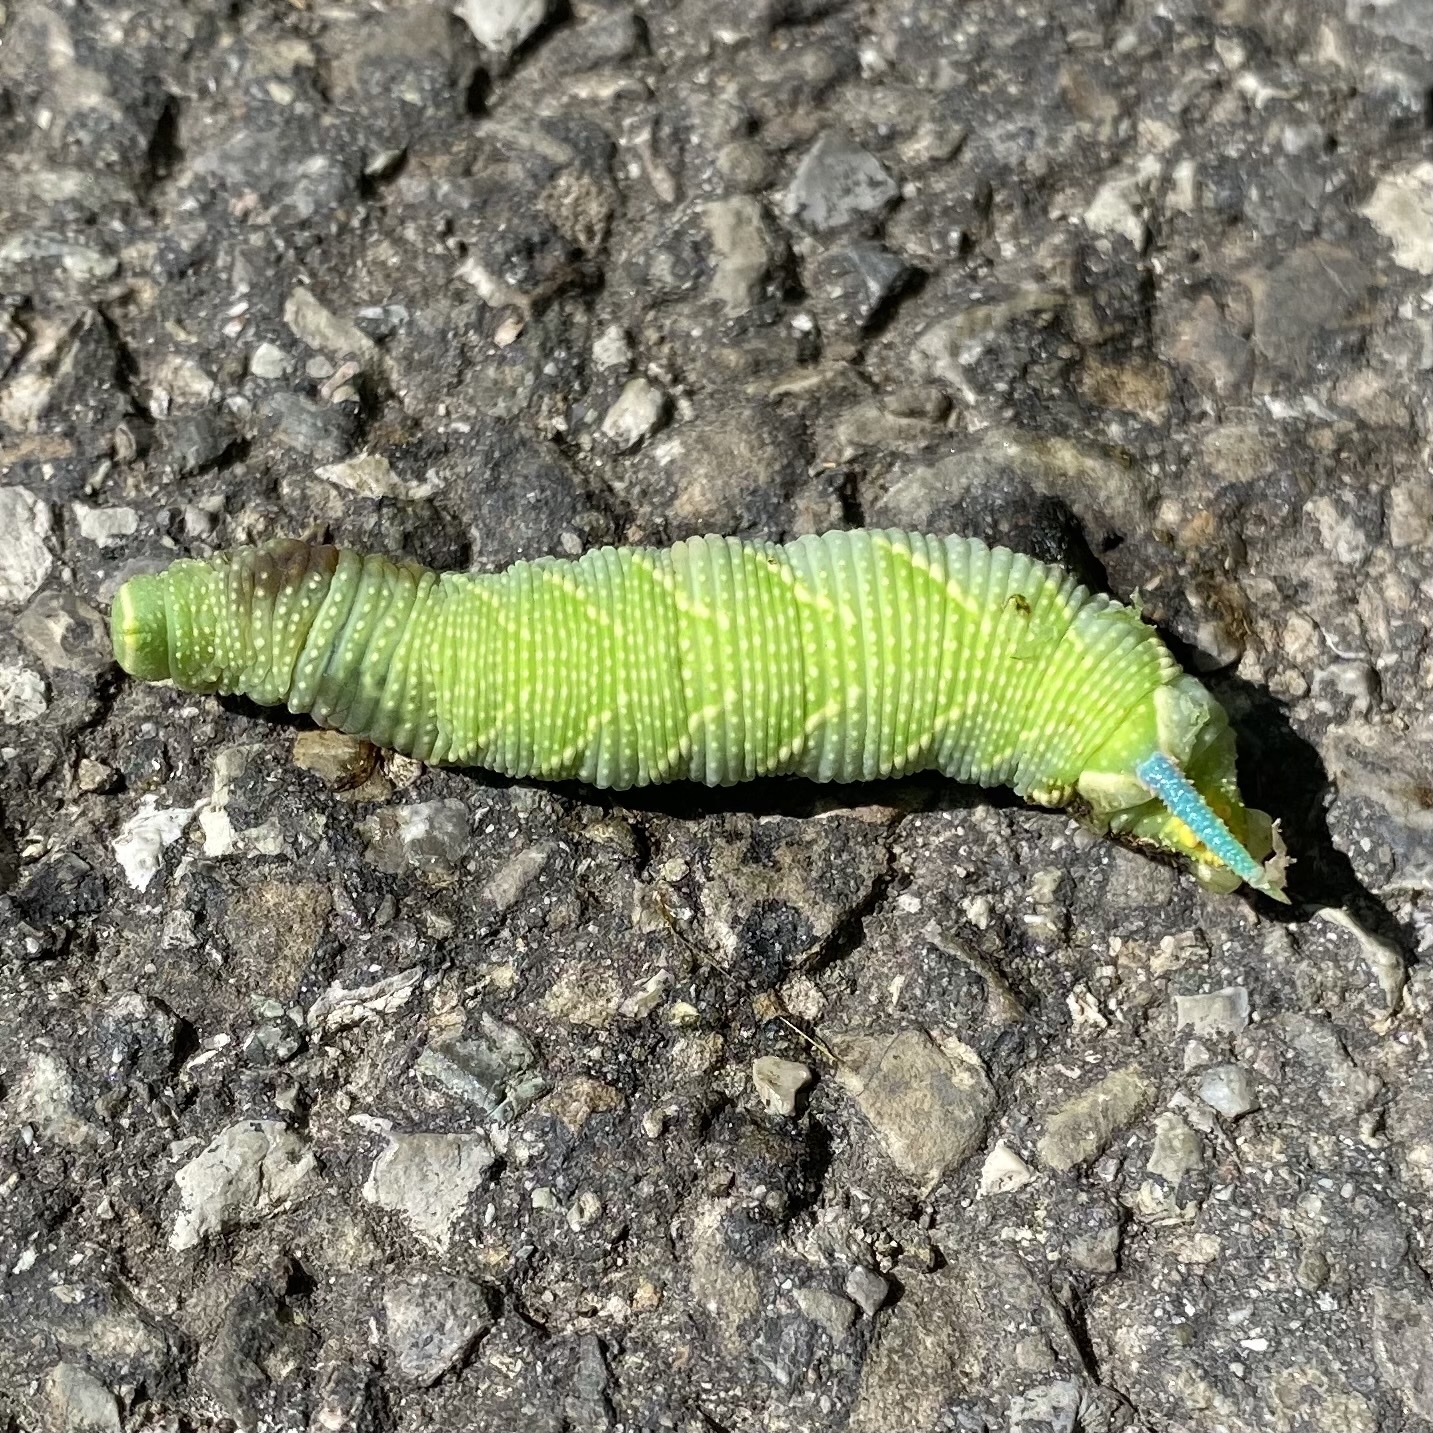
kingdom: Animalia
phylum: Arthropoda
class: Insecta
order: Lepidoptera
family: Sphingidae
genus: Mimas
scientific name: Mimas tiliae
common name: Lime hawk-moth
